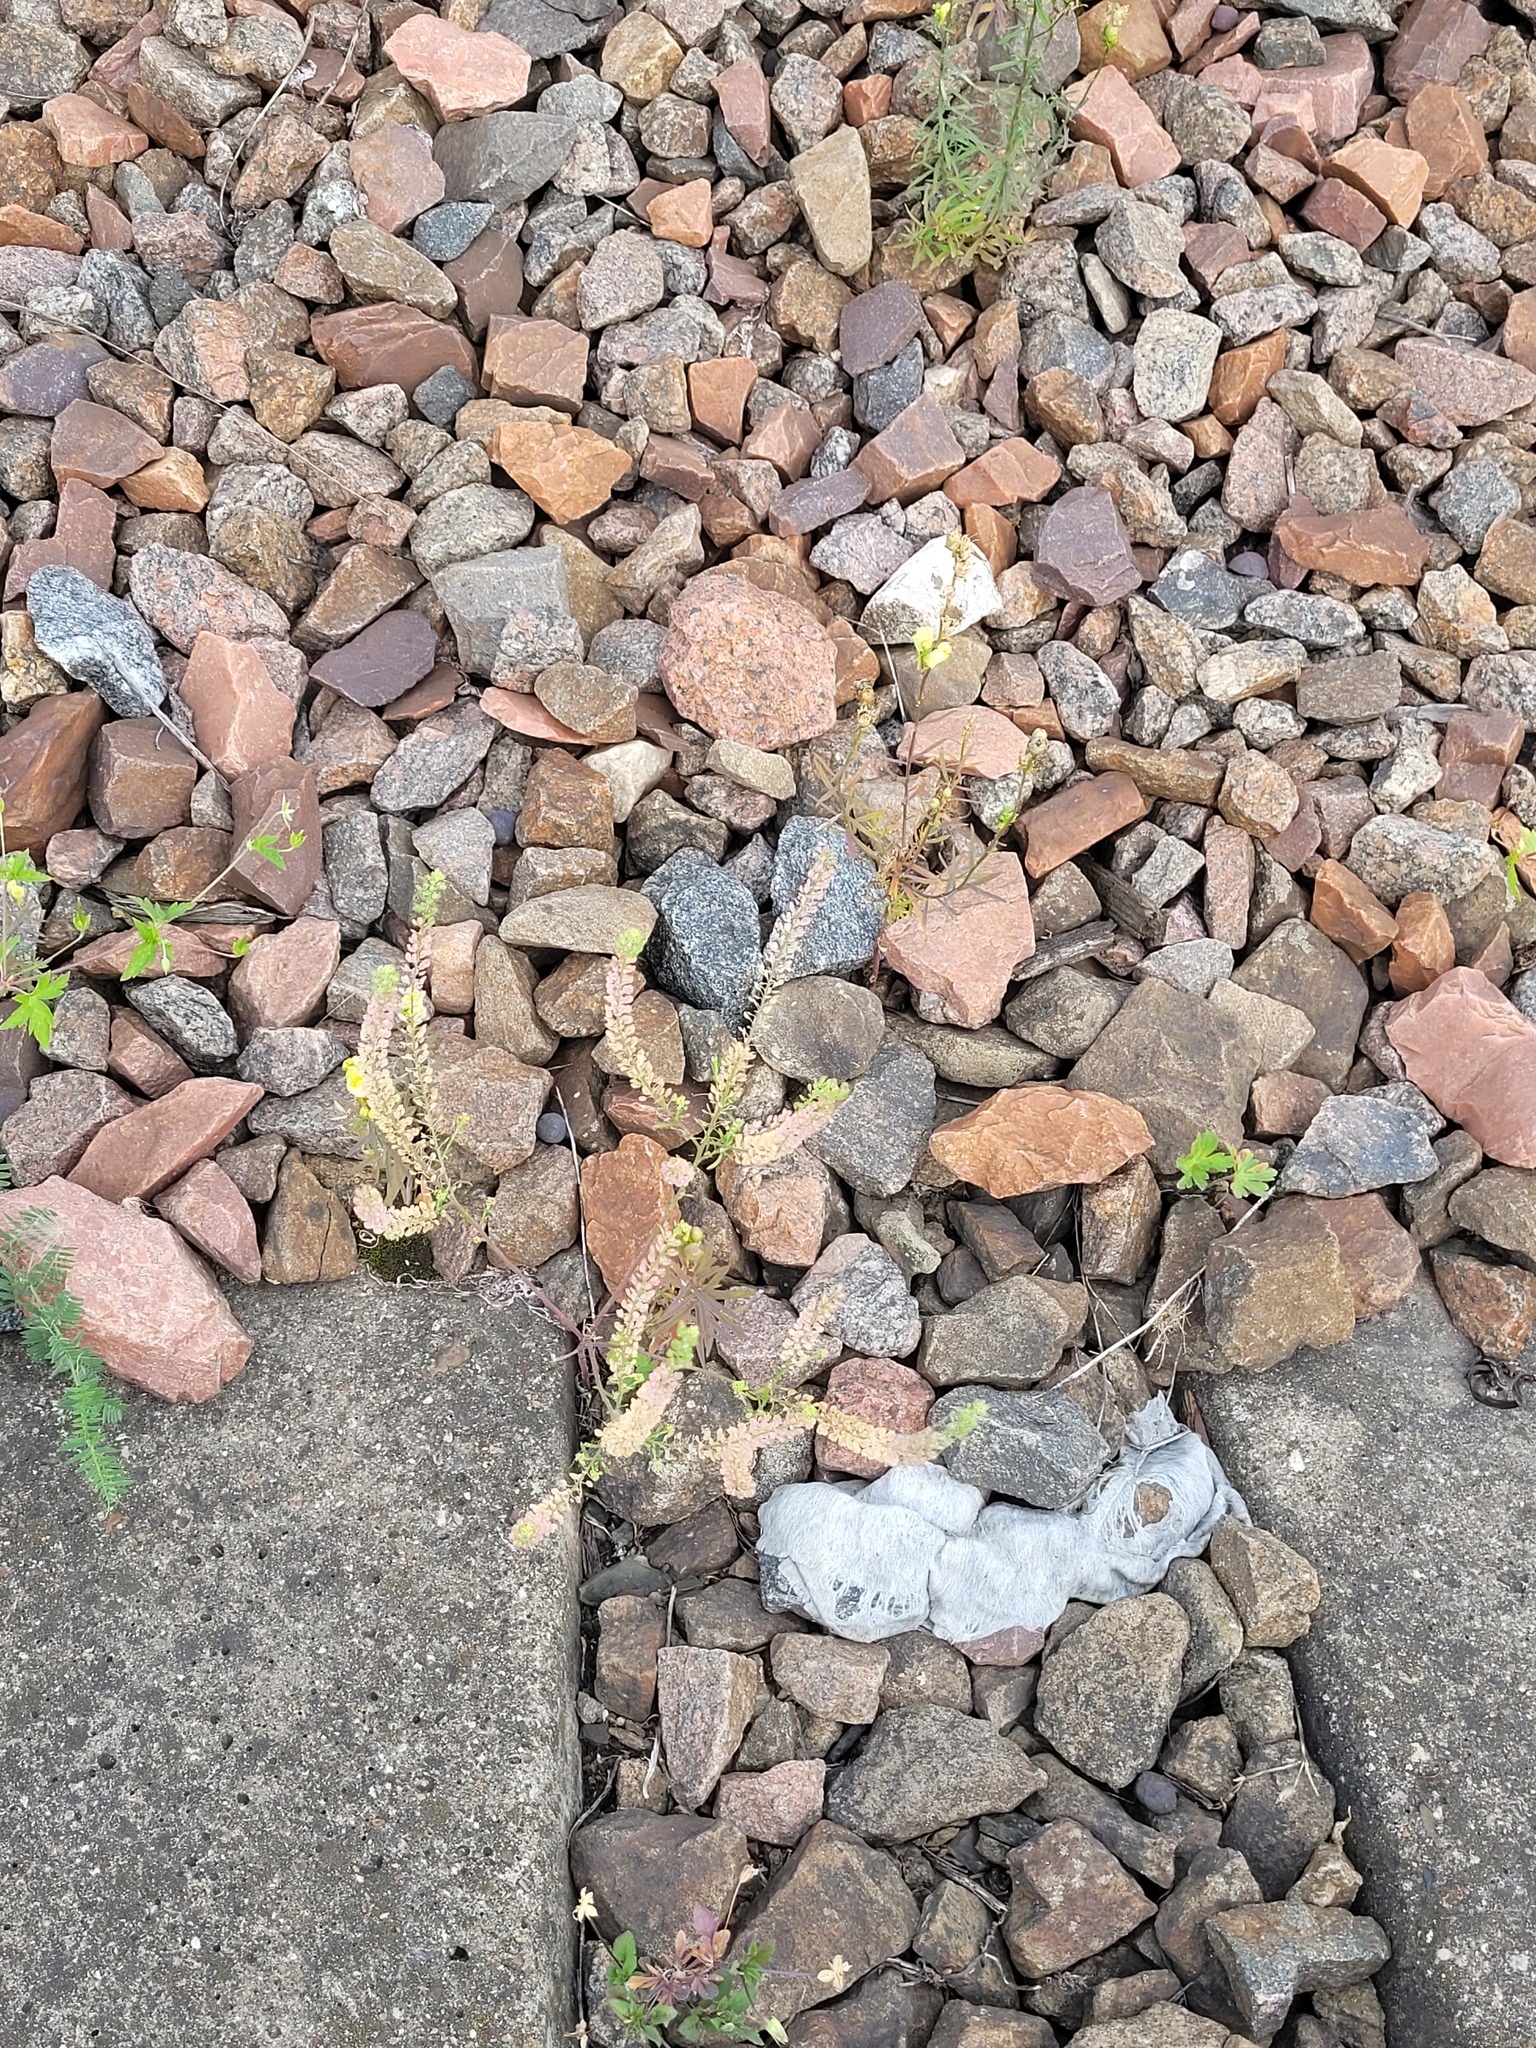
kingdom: Plantae
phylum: Tracheophyta
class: Magnoliopsida
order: Brassicales
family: Brassicaceae
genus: Lepidium
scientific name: Lepidium densiflorum
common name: Miner's pepperwort
